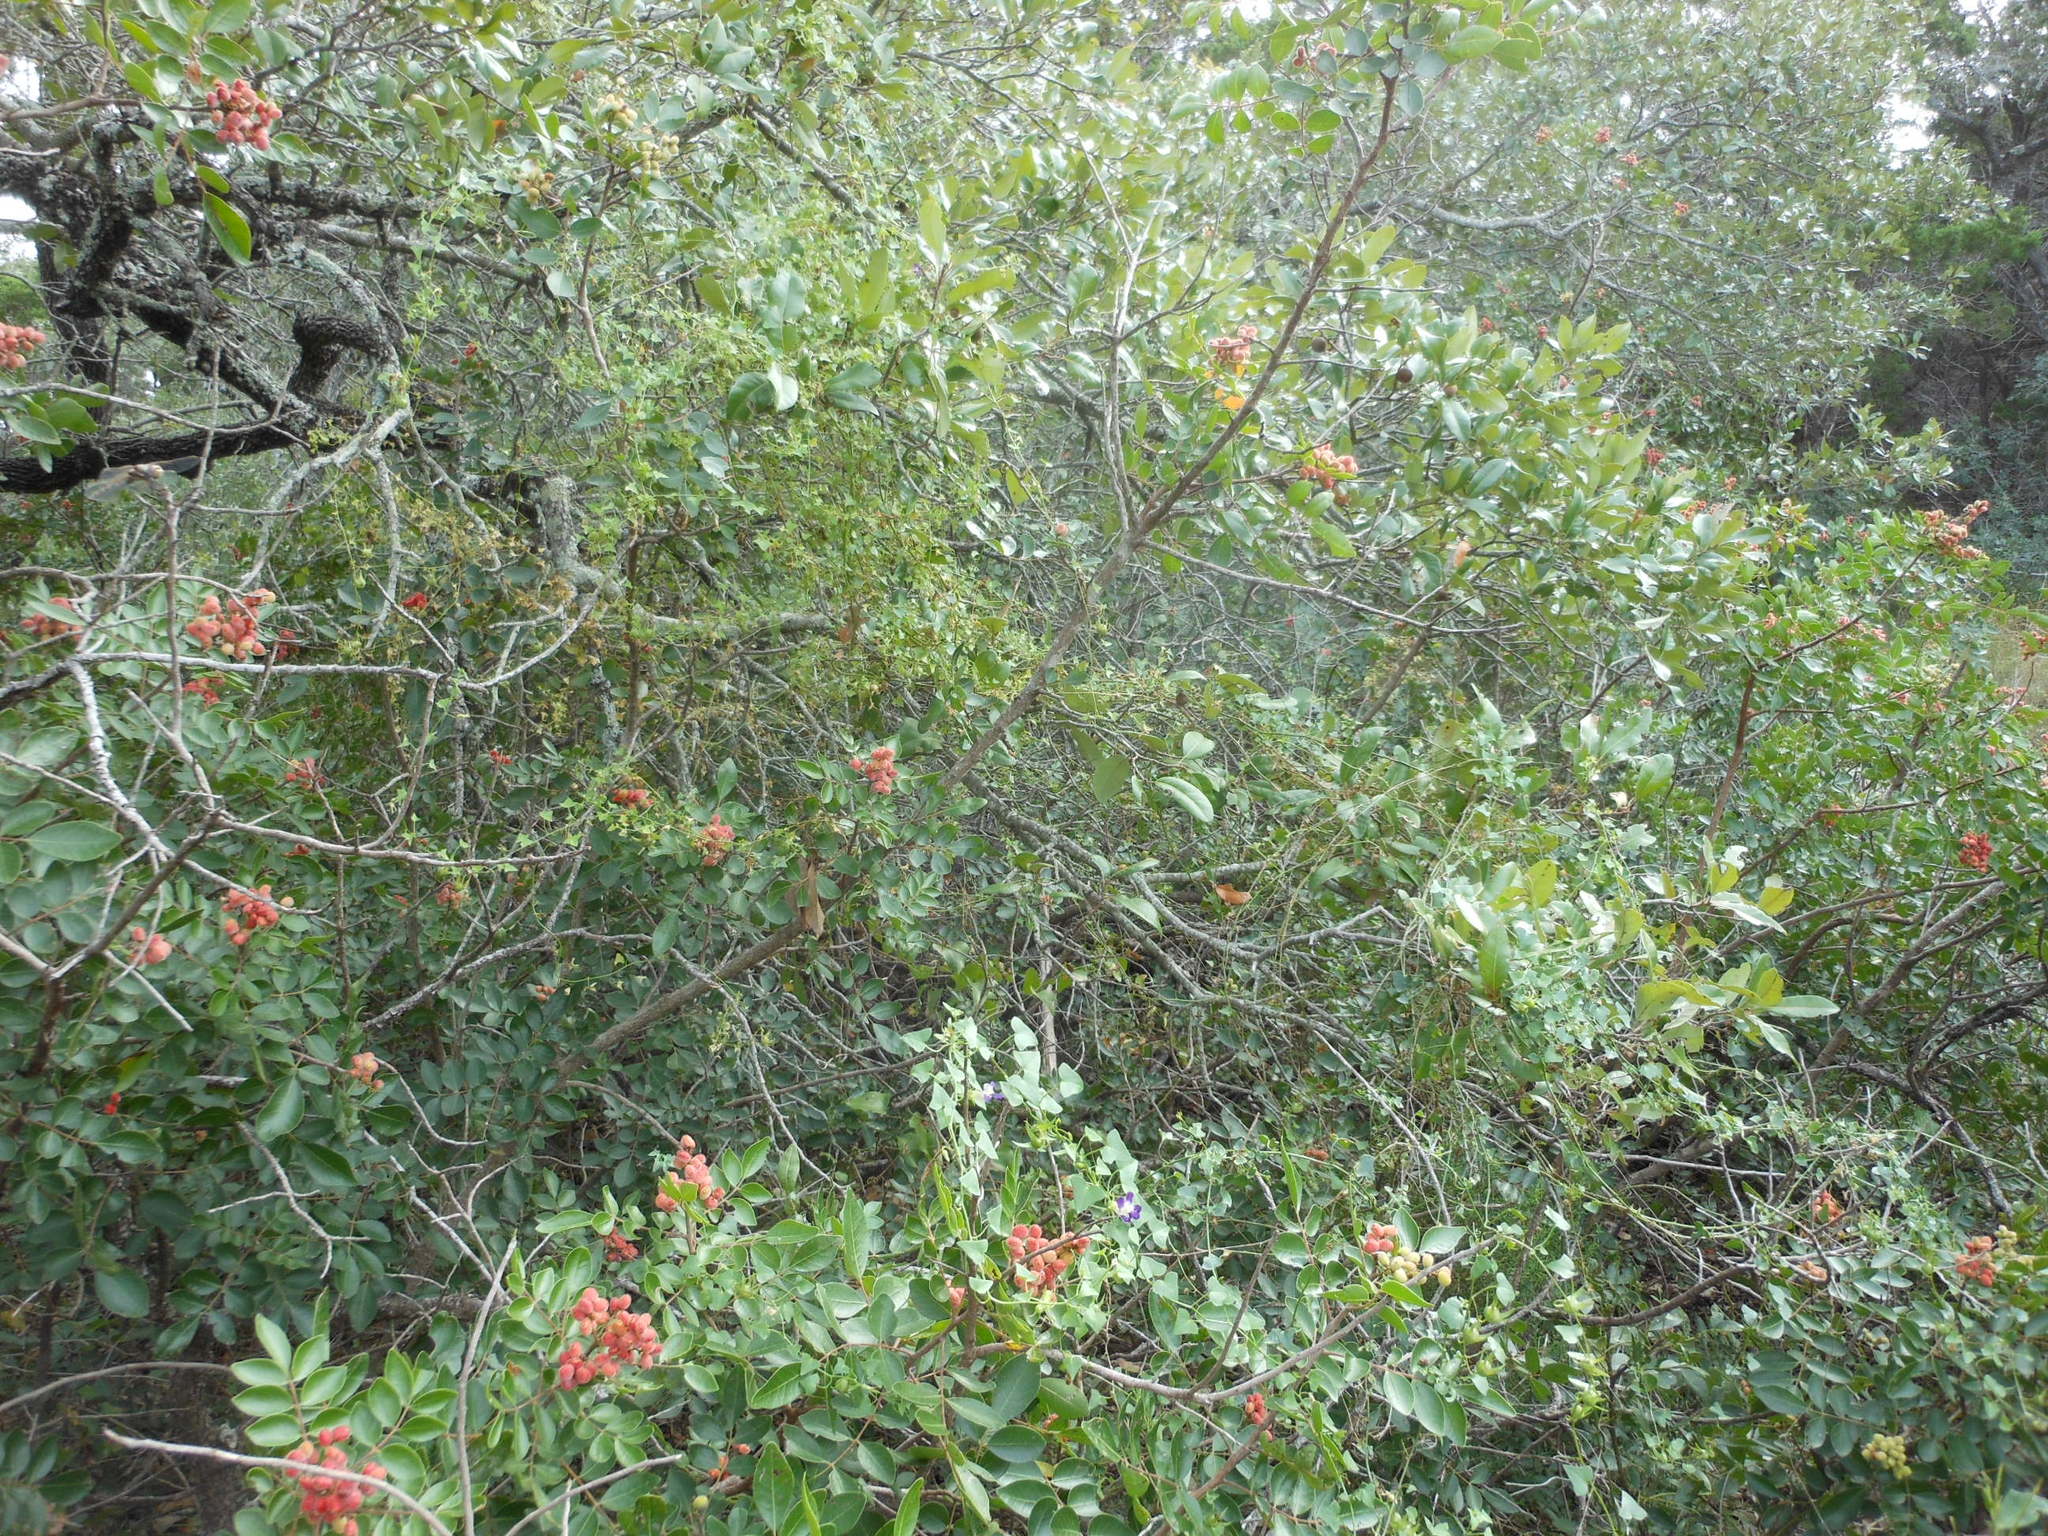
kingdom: Plantae
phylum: Tracheophyta
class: Magnoliopsida
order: Lamiales
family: Plantaginaceae
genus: Maurandella
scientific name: Maurandella antirrhiniflora
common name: Violet twining-snapdragon
